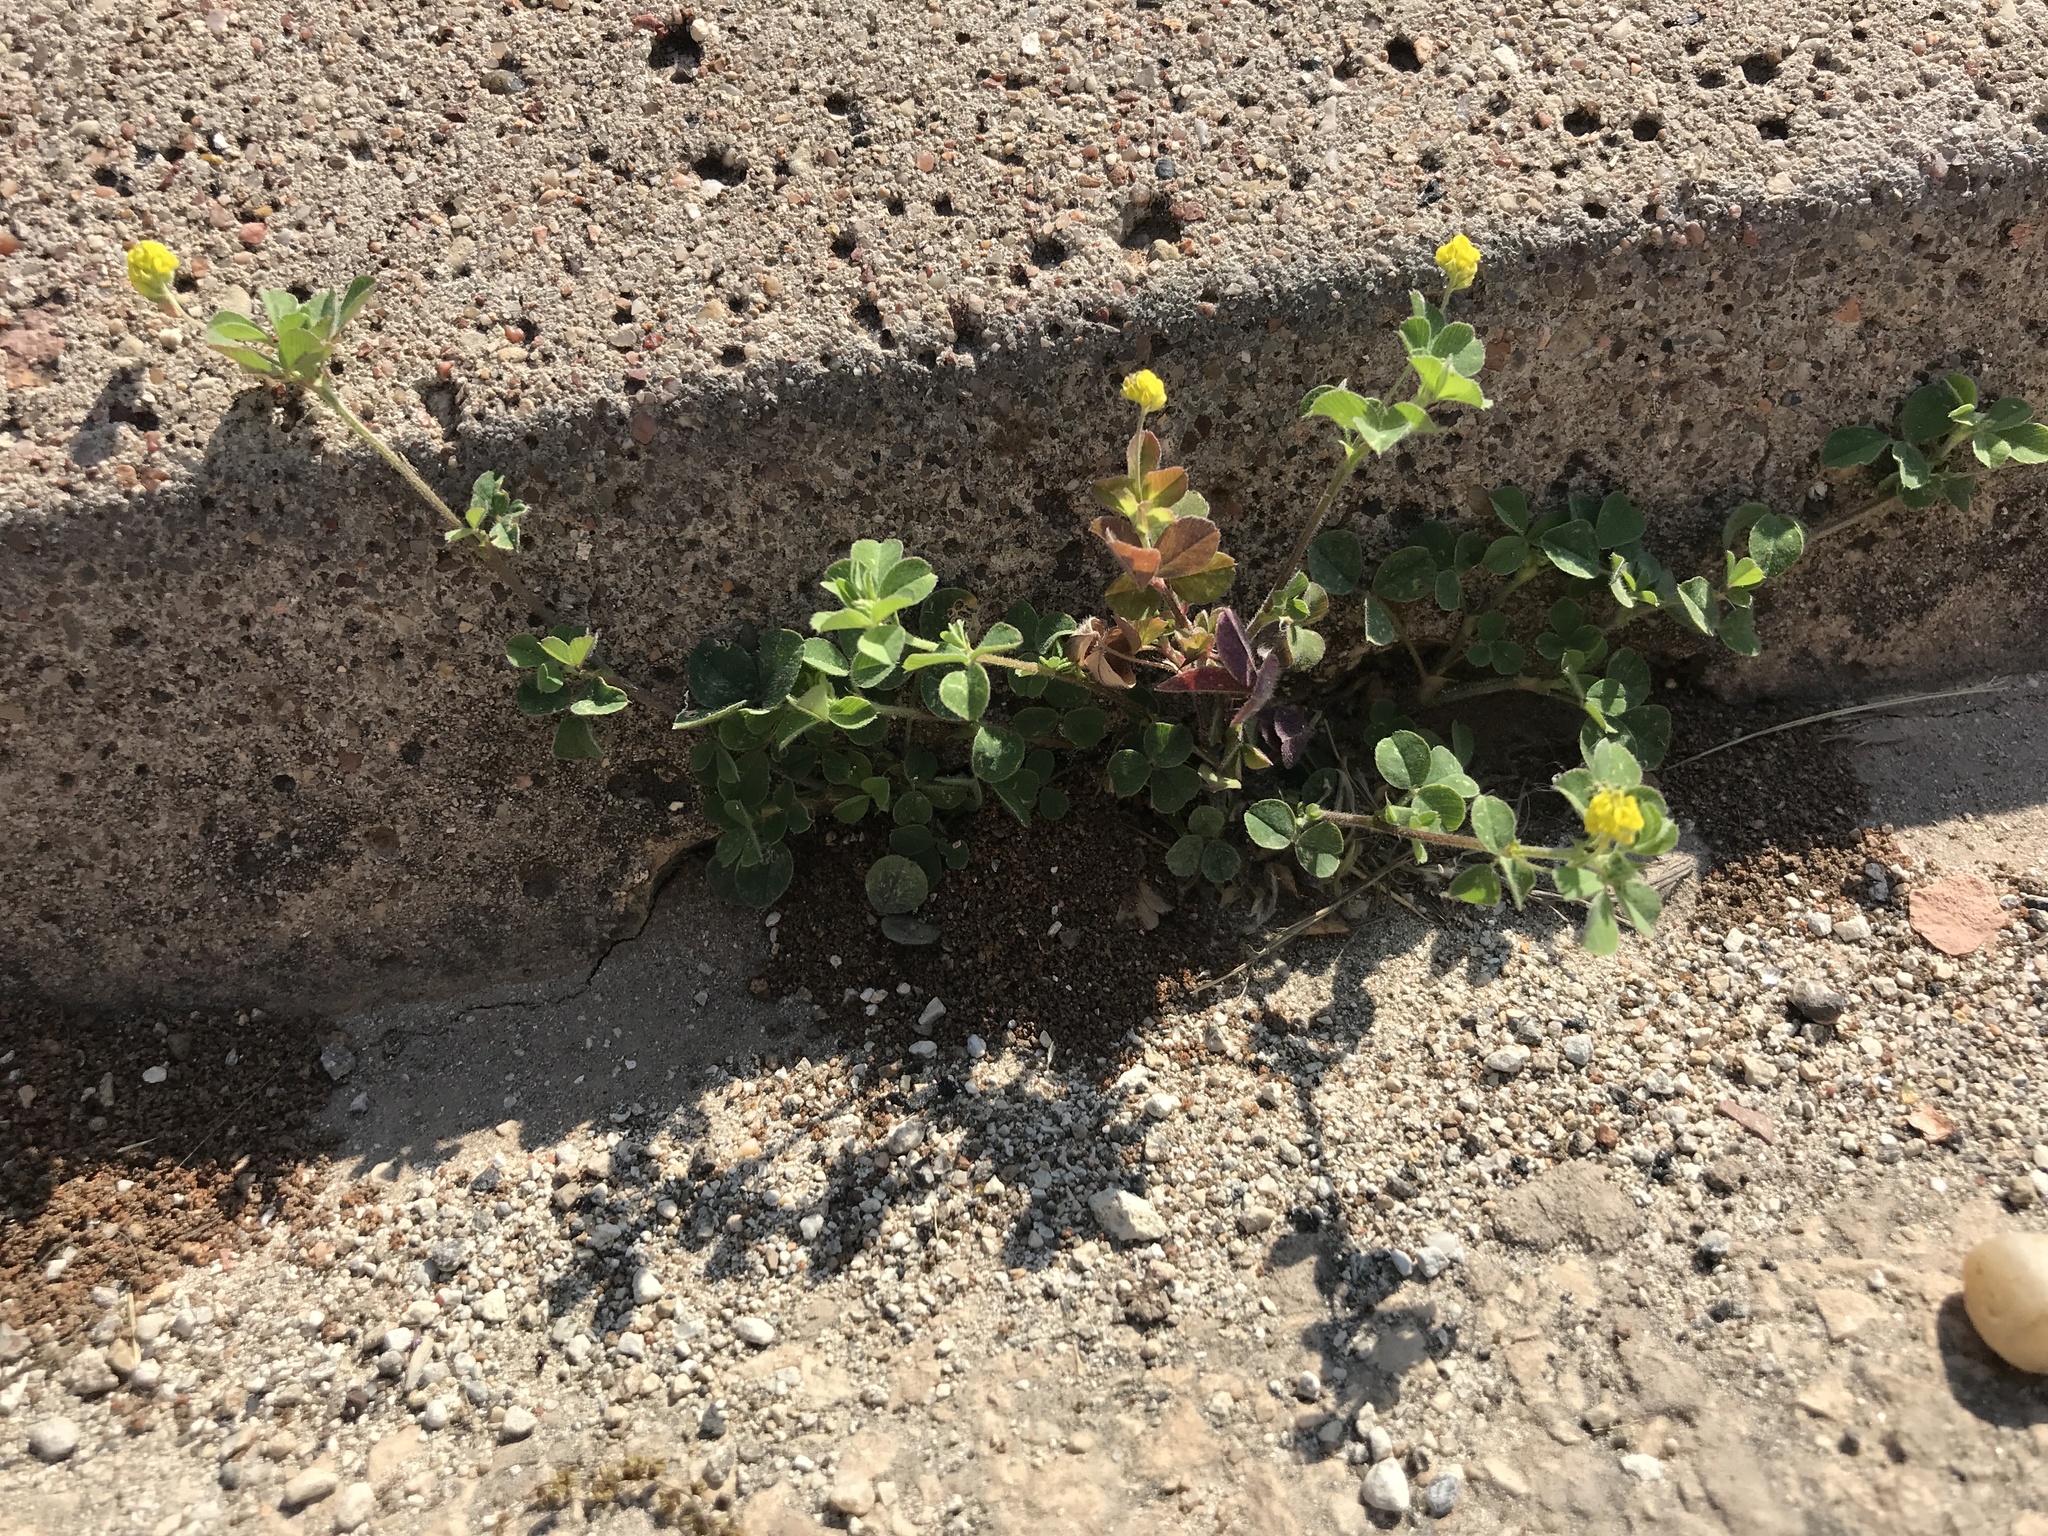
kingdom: Plantae
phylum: Tracheophyta
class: Magnoliopsida
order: Fabales
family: Fabaceae
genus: Medicago
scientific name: Medicago lupulina
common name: Black medick
